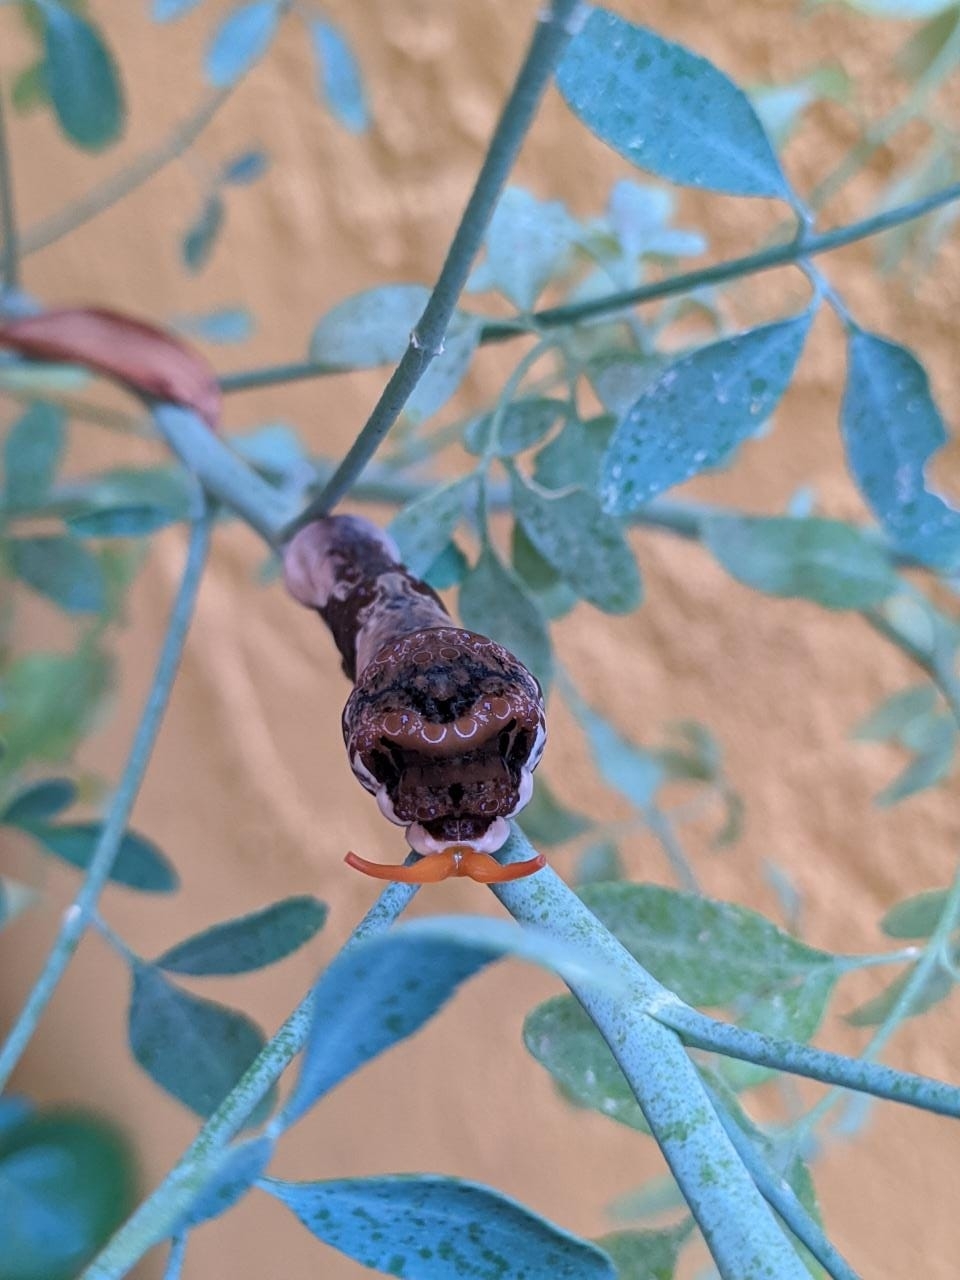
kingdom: Animalia
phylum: Arthropoda
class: Insecta
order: Lepidoptera
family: Papilionidae
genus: Papilio
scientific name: Papilio thoas
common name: King swallowtail
